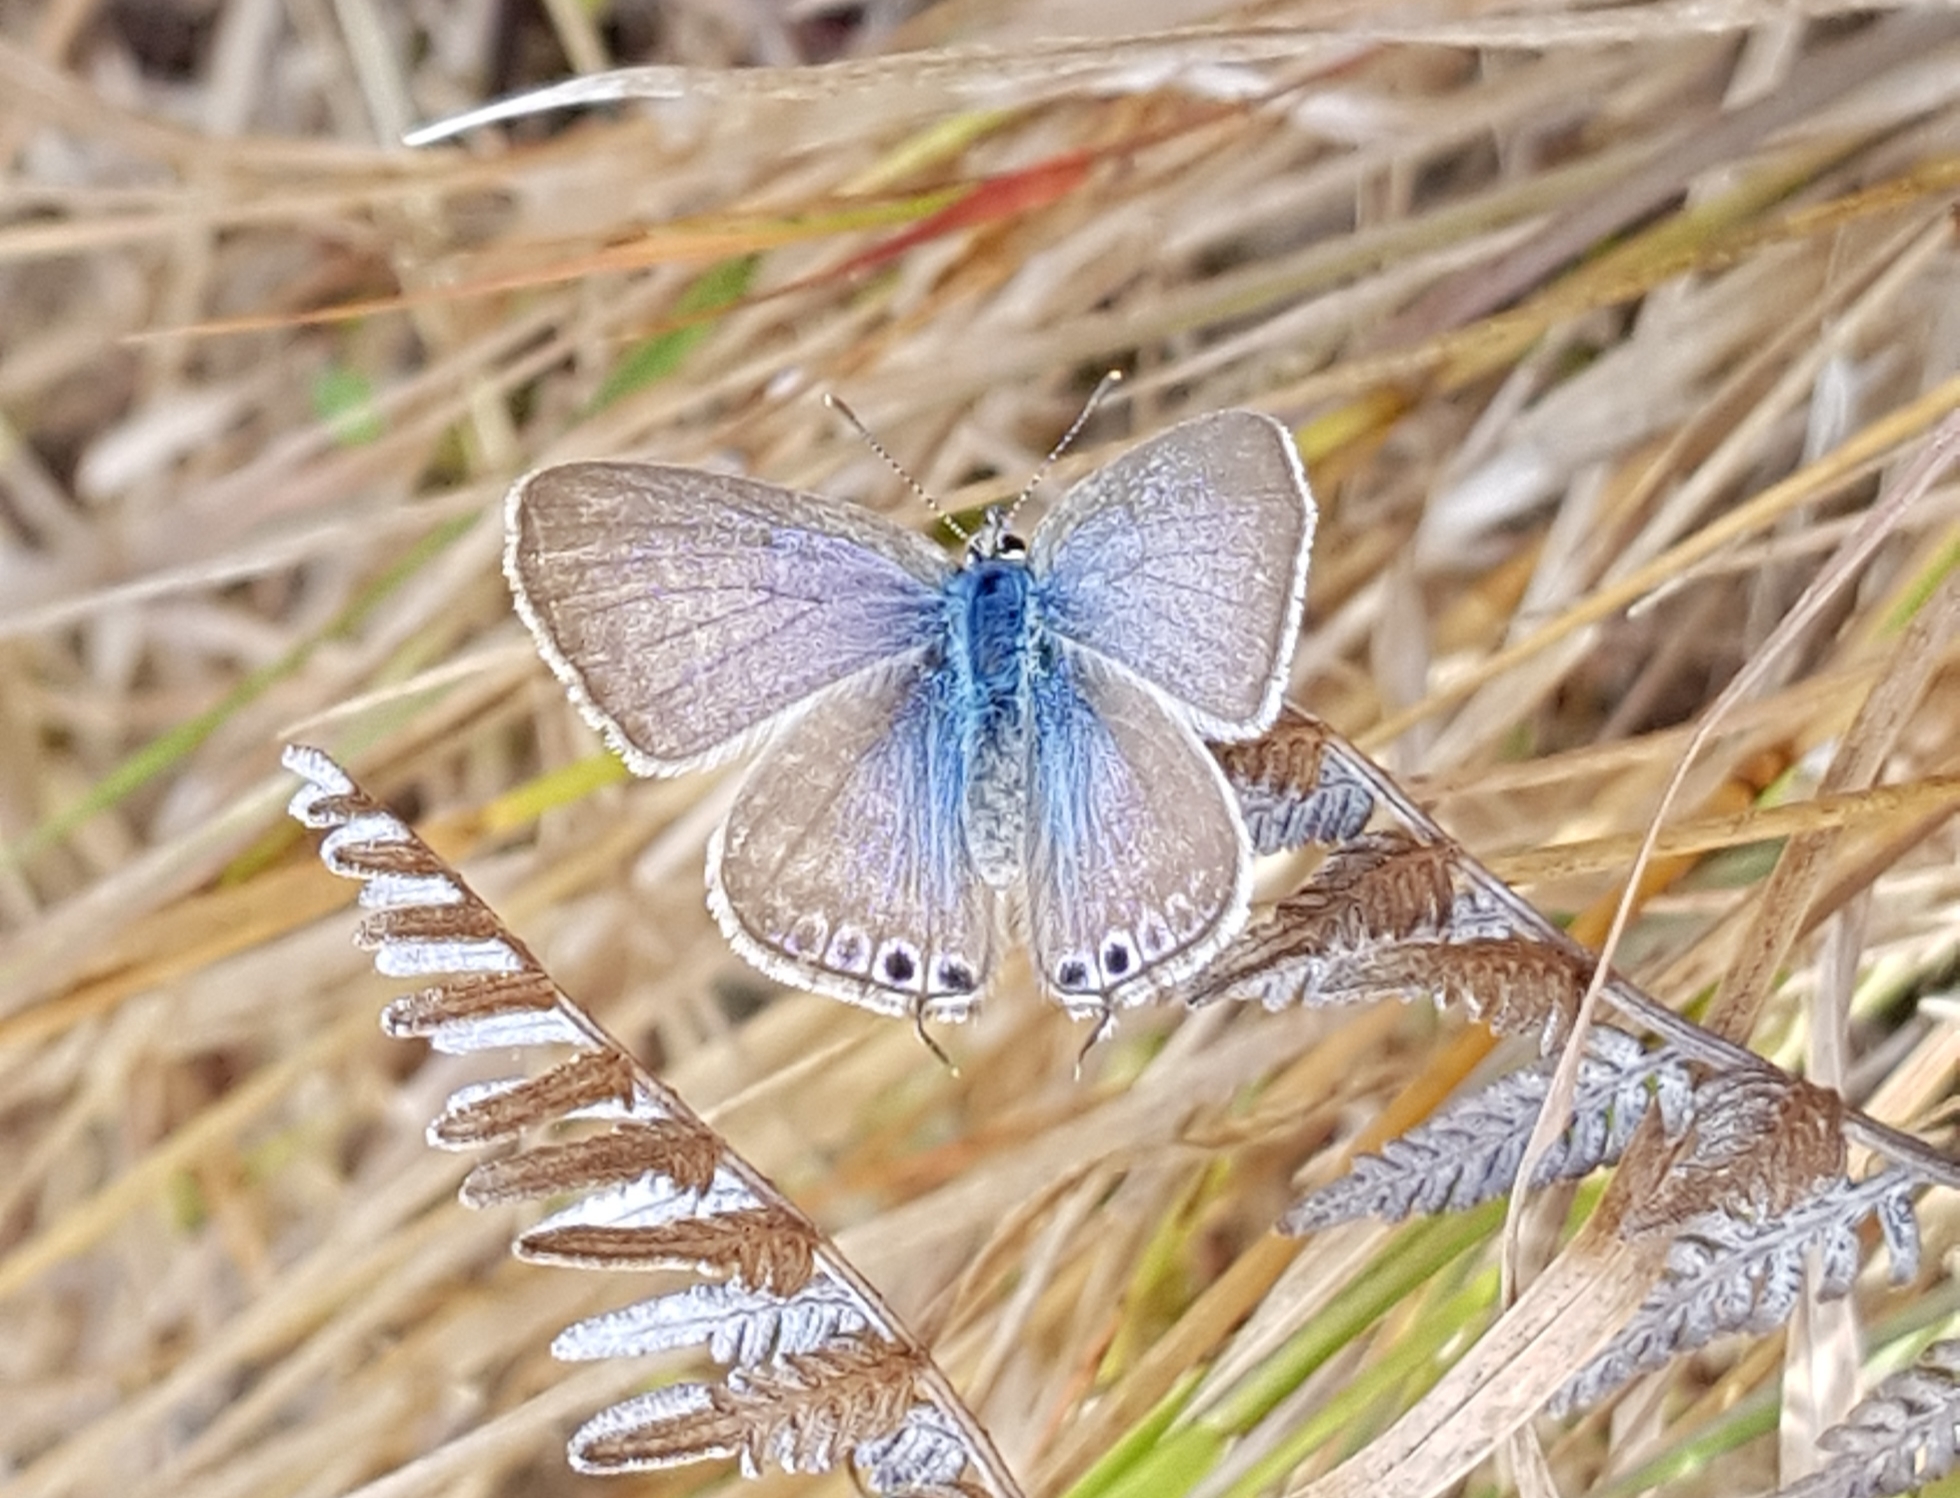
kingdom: Animalia
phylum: Arthropoda
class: Insecta
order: Lepidoptera
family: Lycaenidae
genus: Lampides
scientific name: Lampides boeticus
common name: Long-tailed blue
